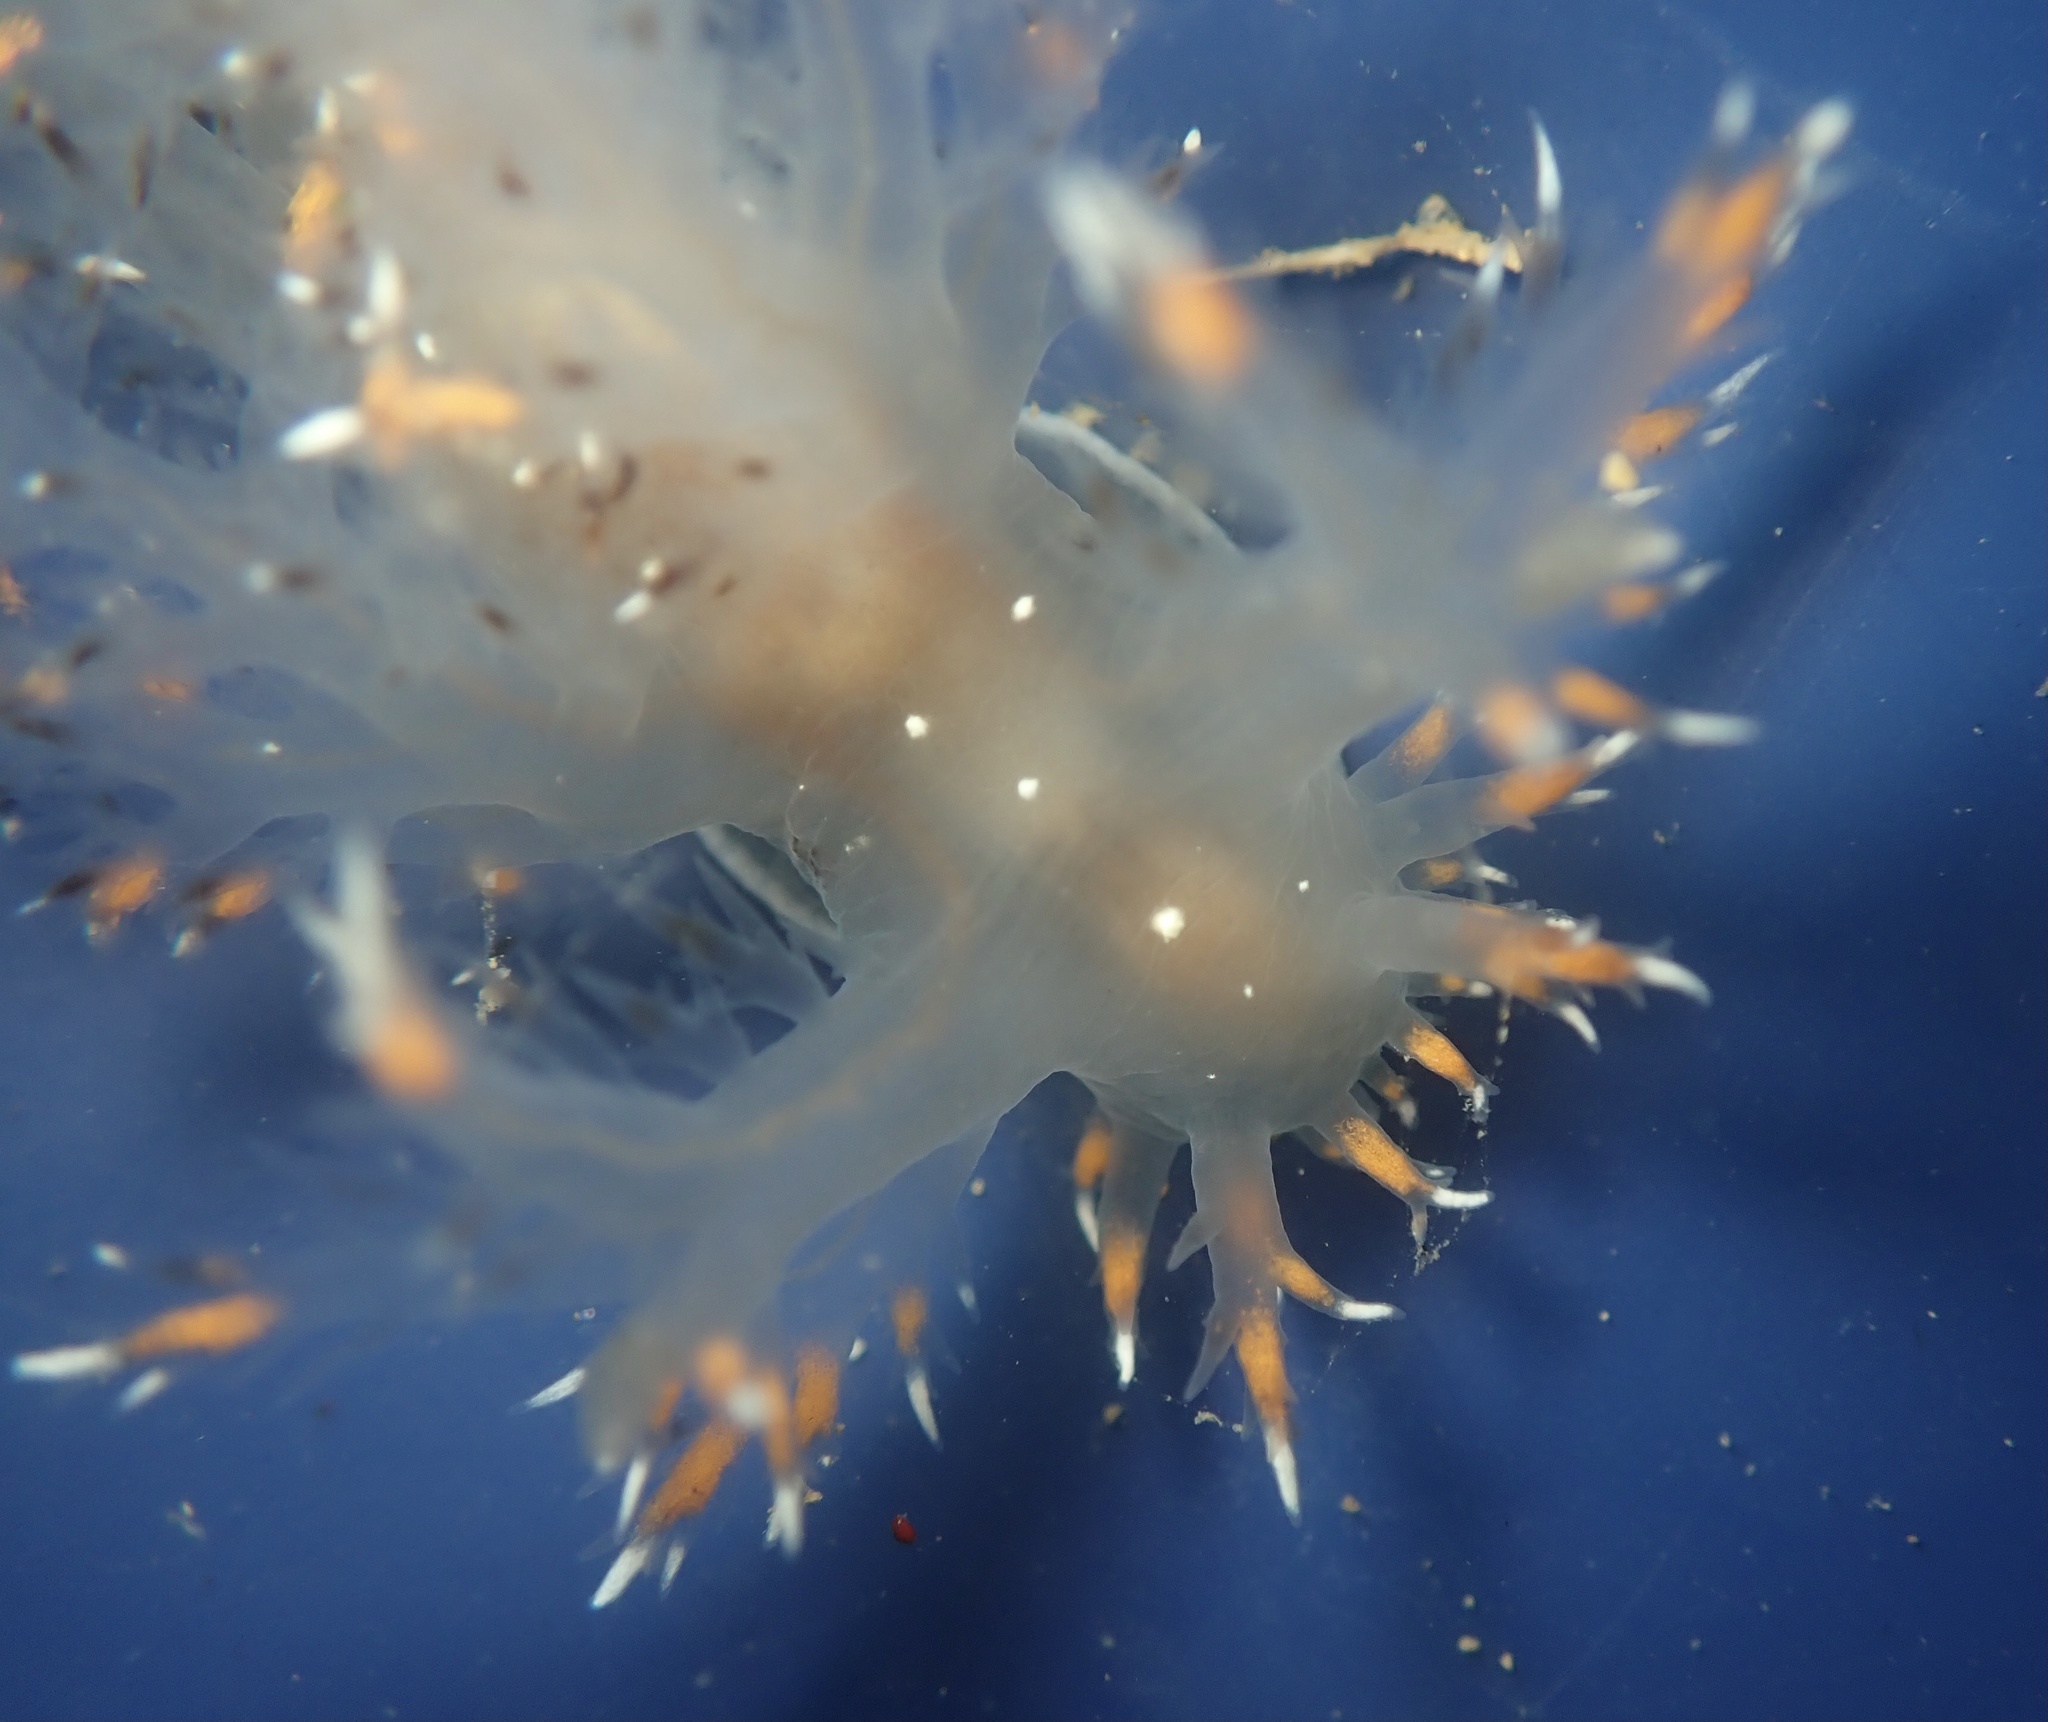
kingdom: Animalia
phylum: Mollusca
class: Gastropoda
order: Nudibranchia
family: Dendronotidae
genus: Dendronotus
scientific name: Dendronotus iris
